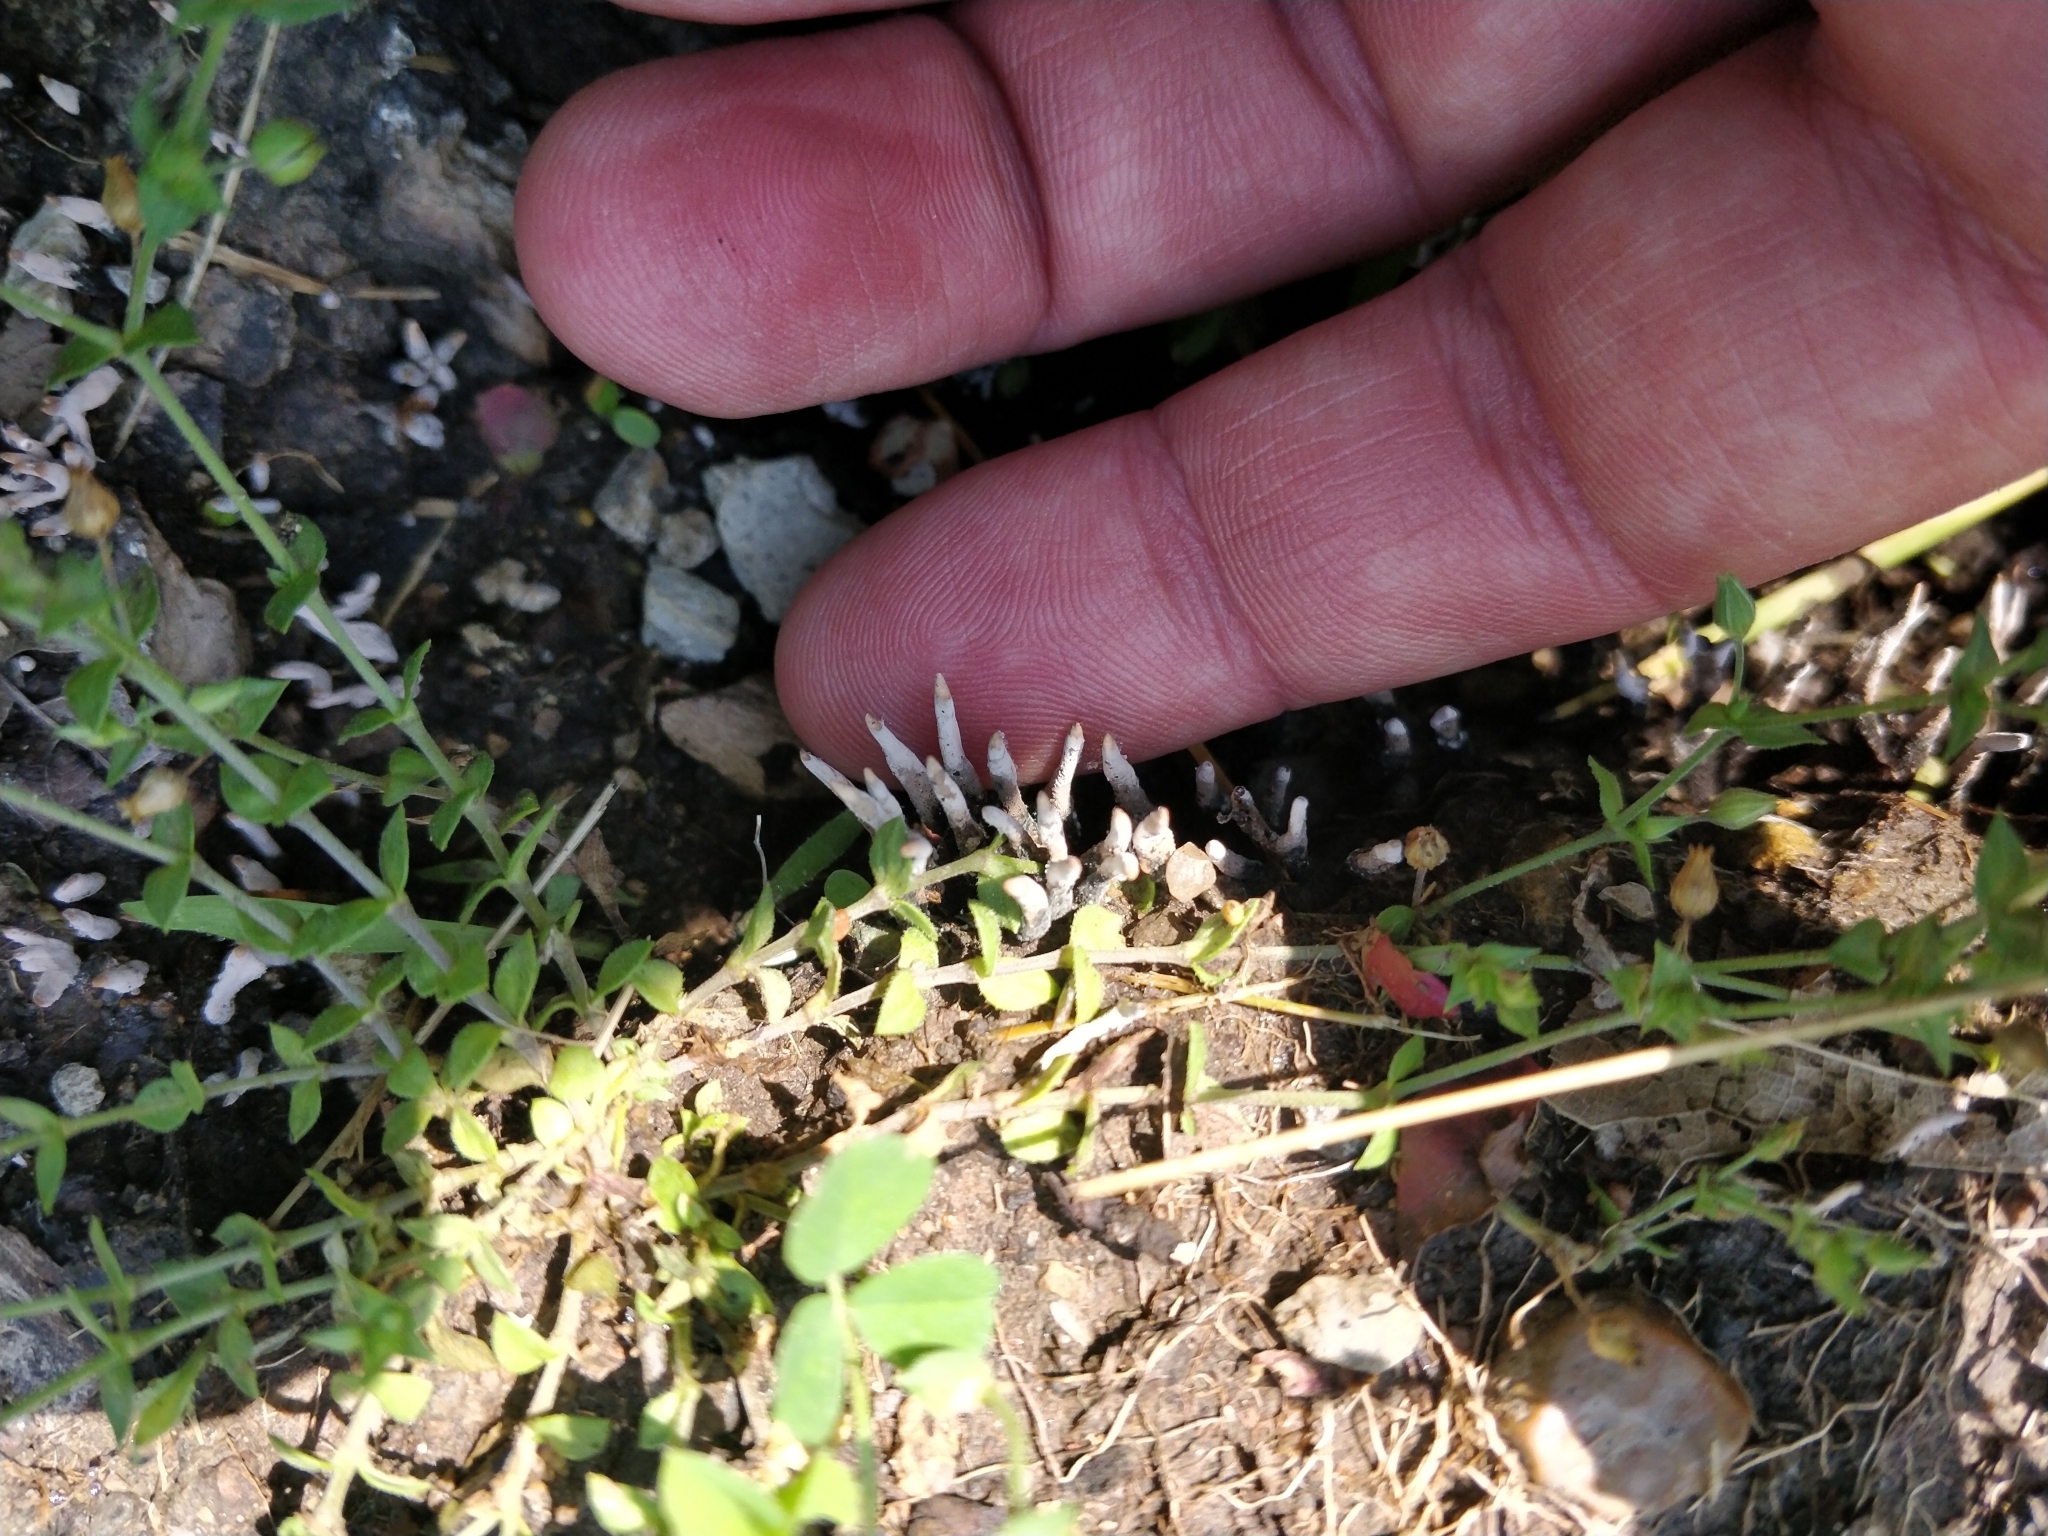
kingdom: Fungi
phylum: Ascomycota
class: Sordariomycetes
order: Xylariales
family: Xylariaceae
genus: Xylaria
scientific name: Xylaria polymorpha
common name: Dead man's fingers
